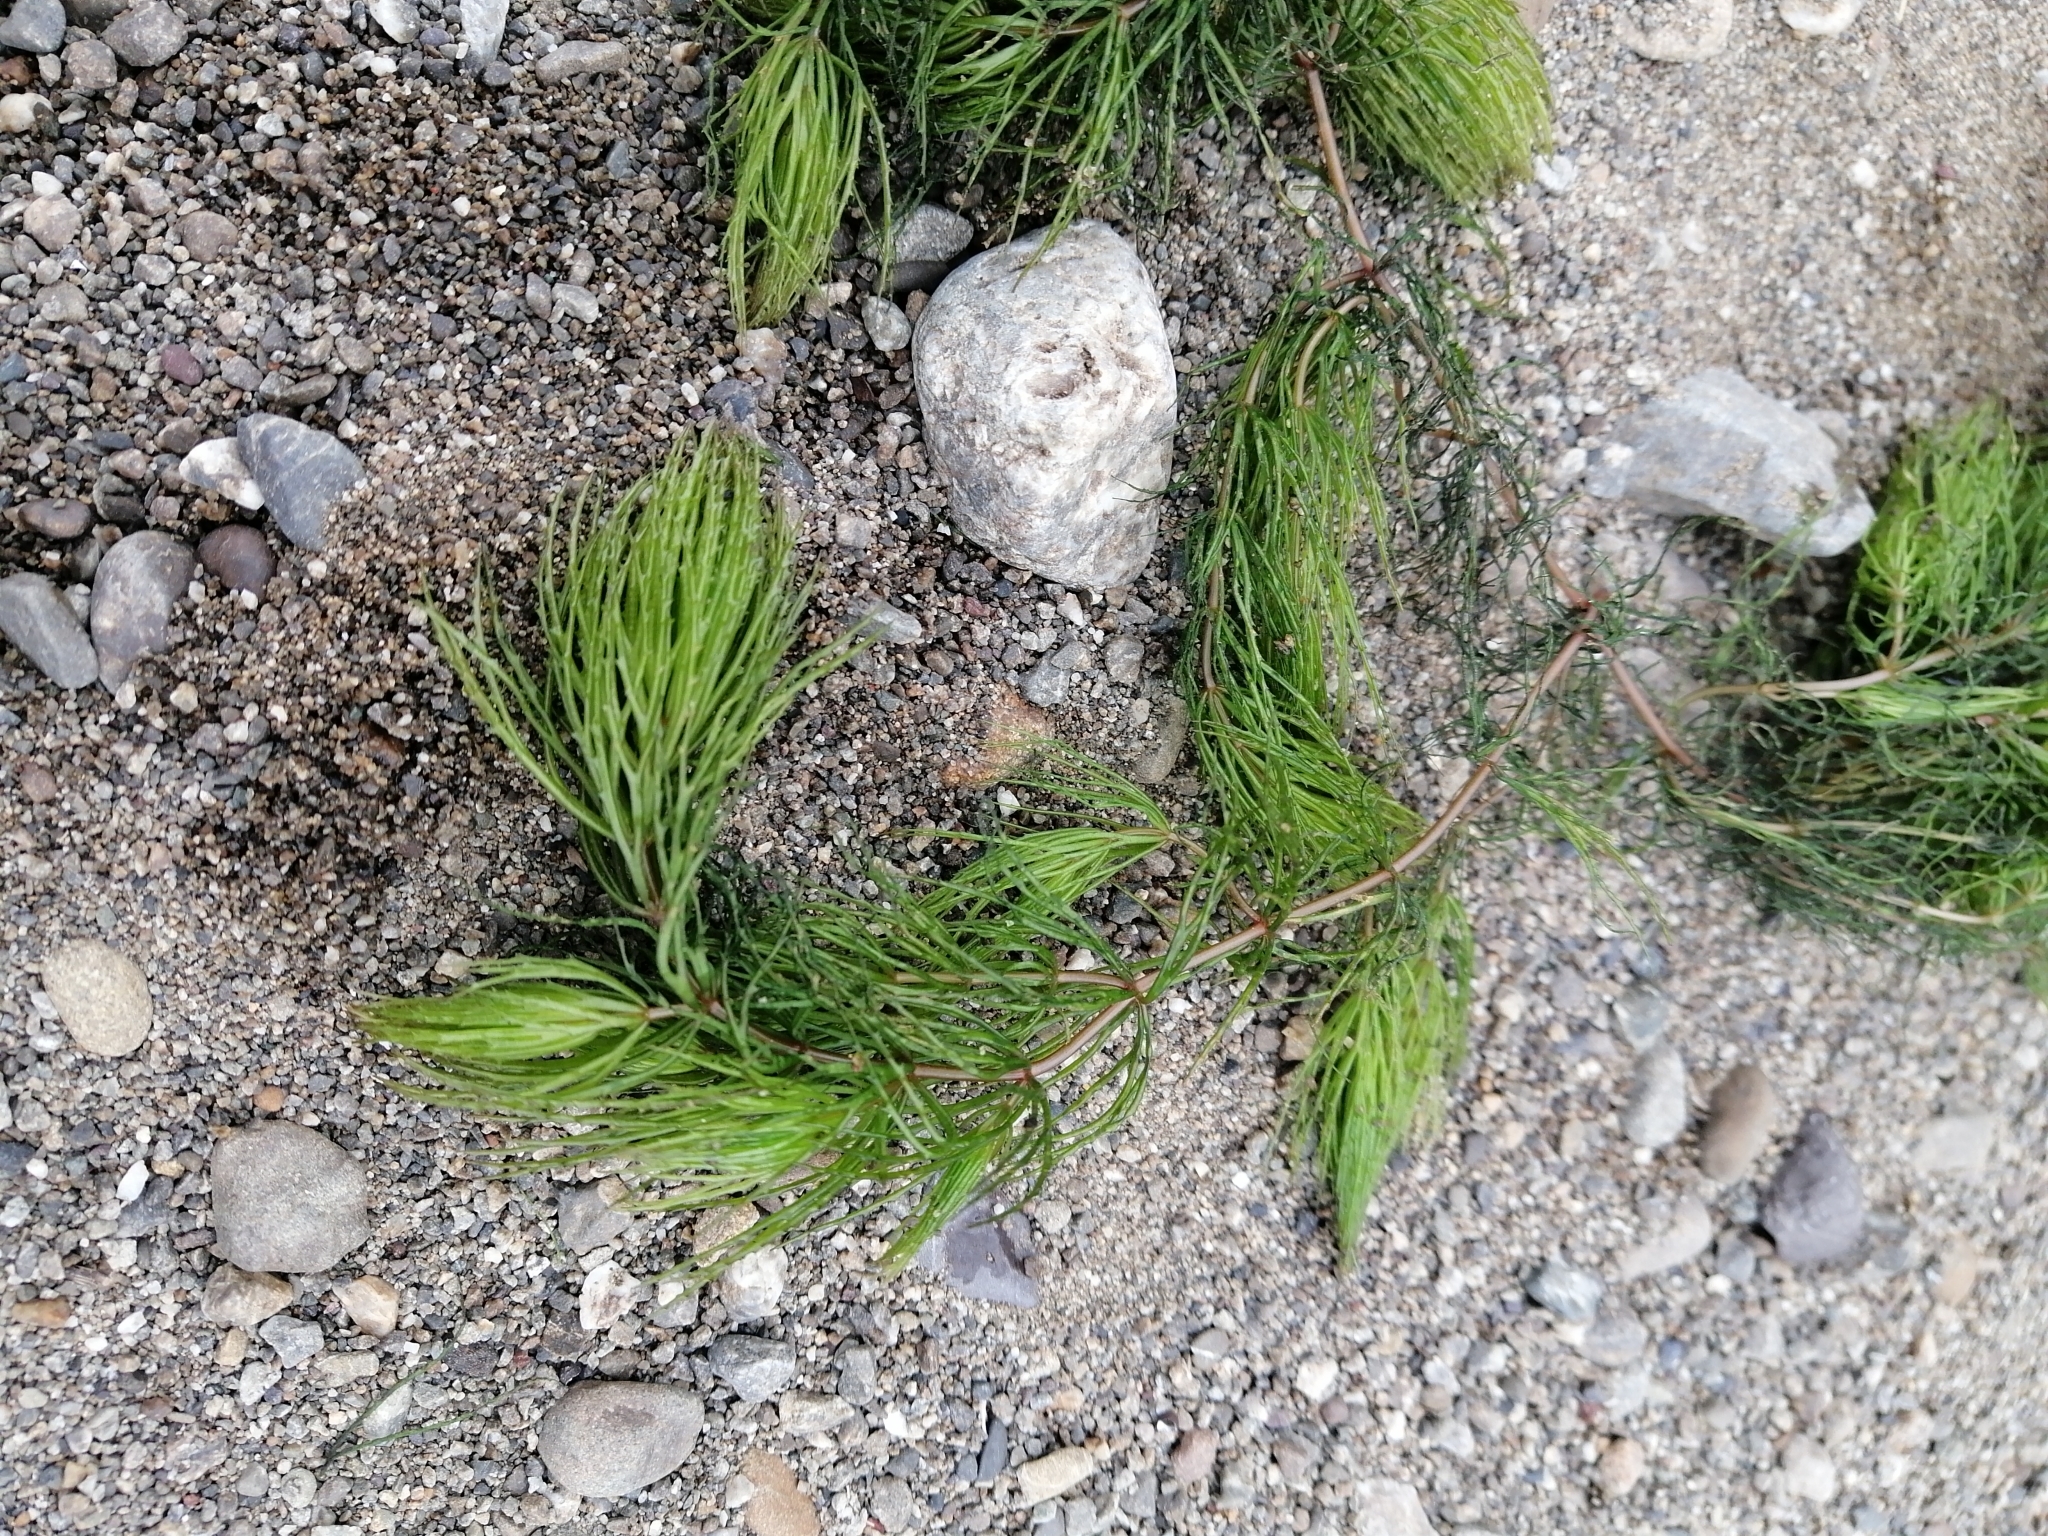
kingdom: Plantae
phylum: Tracheophyta
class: Magnoliopsida
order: Ceratophyllales
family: Ceratophyllaceae
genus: Ceratophyllum
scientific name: Ceratophyllum demersum
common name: Rigid hornwort
